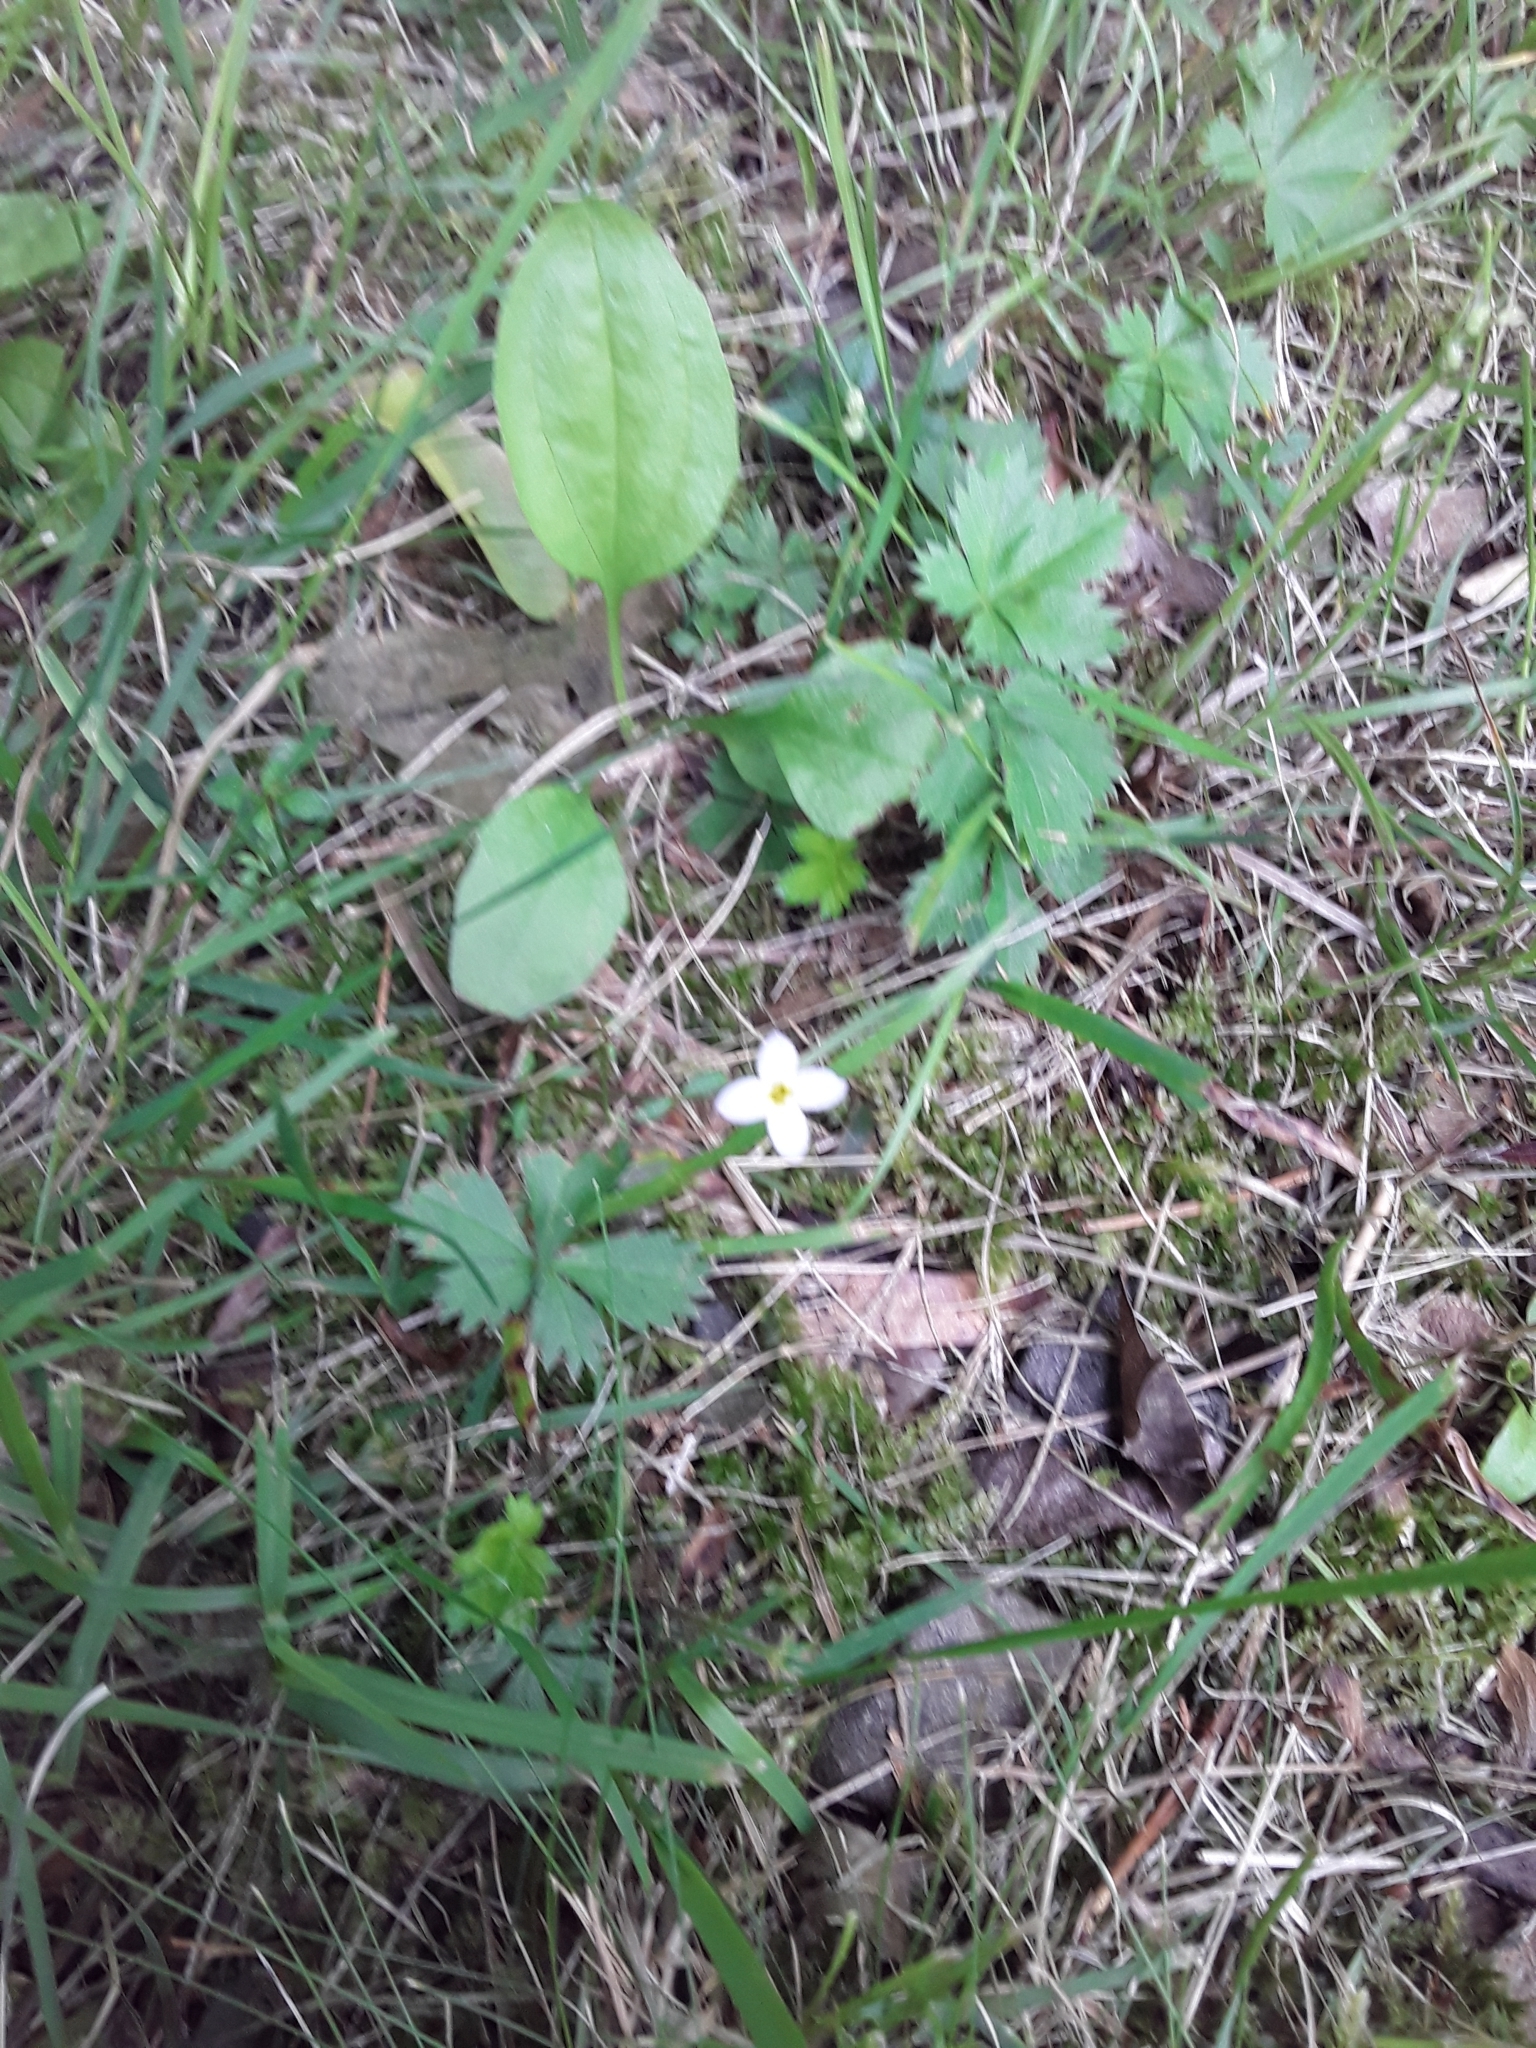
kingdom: Plantae
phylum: Tracheophyta
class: Magnoliopsida
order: Gentianales
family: Rubiaceae
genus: Houstonia
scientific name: Houstonia caerulea
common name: Bluets
